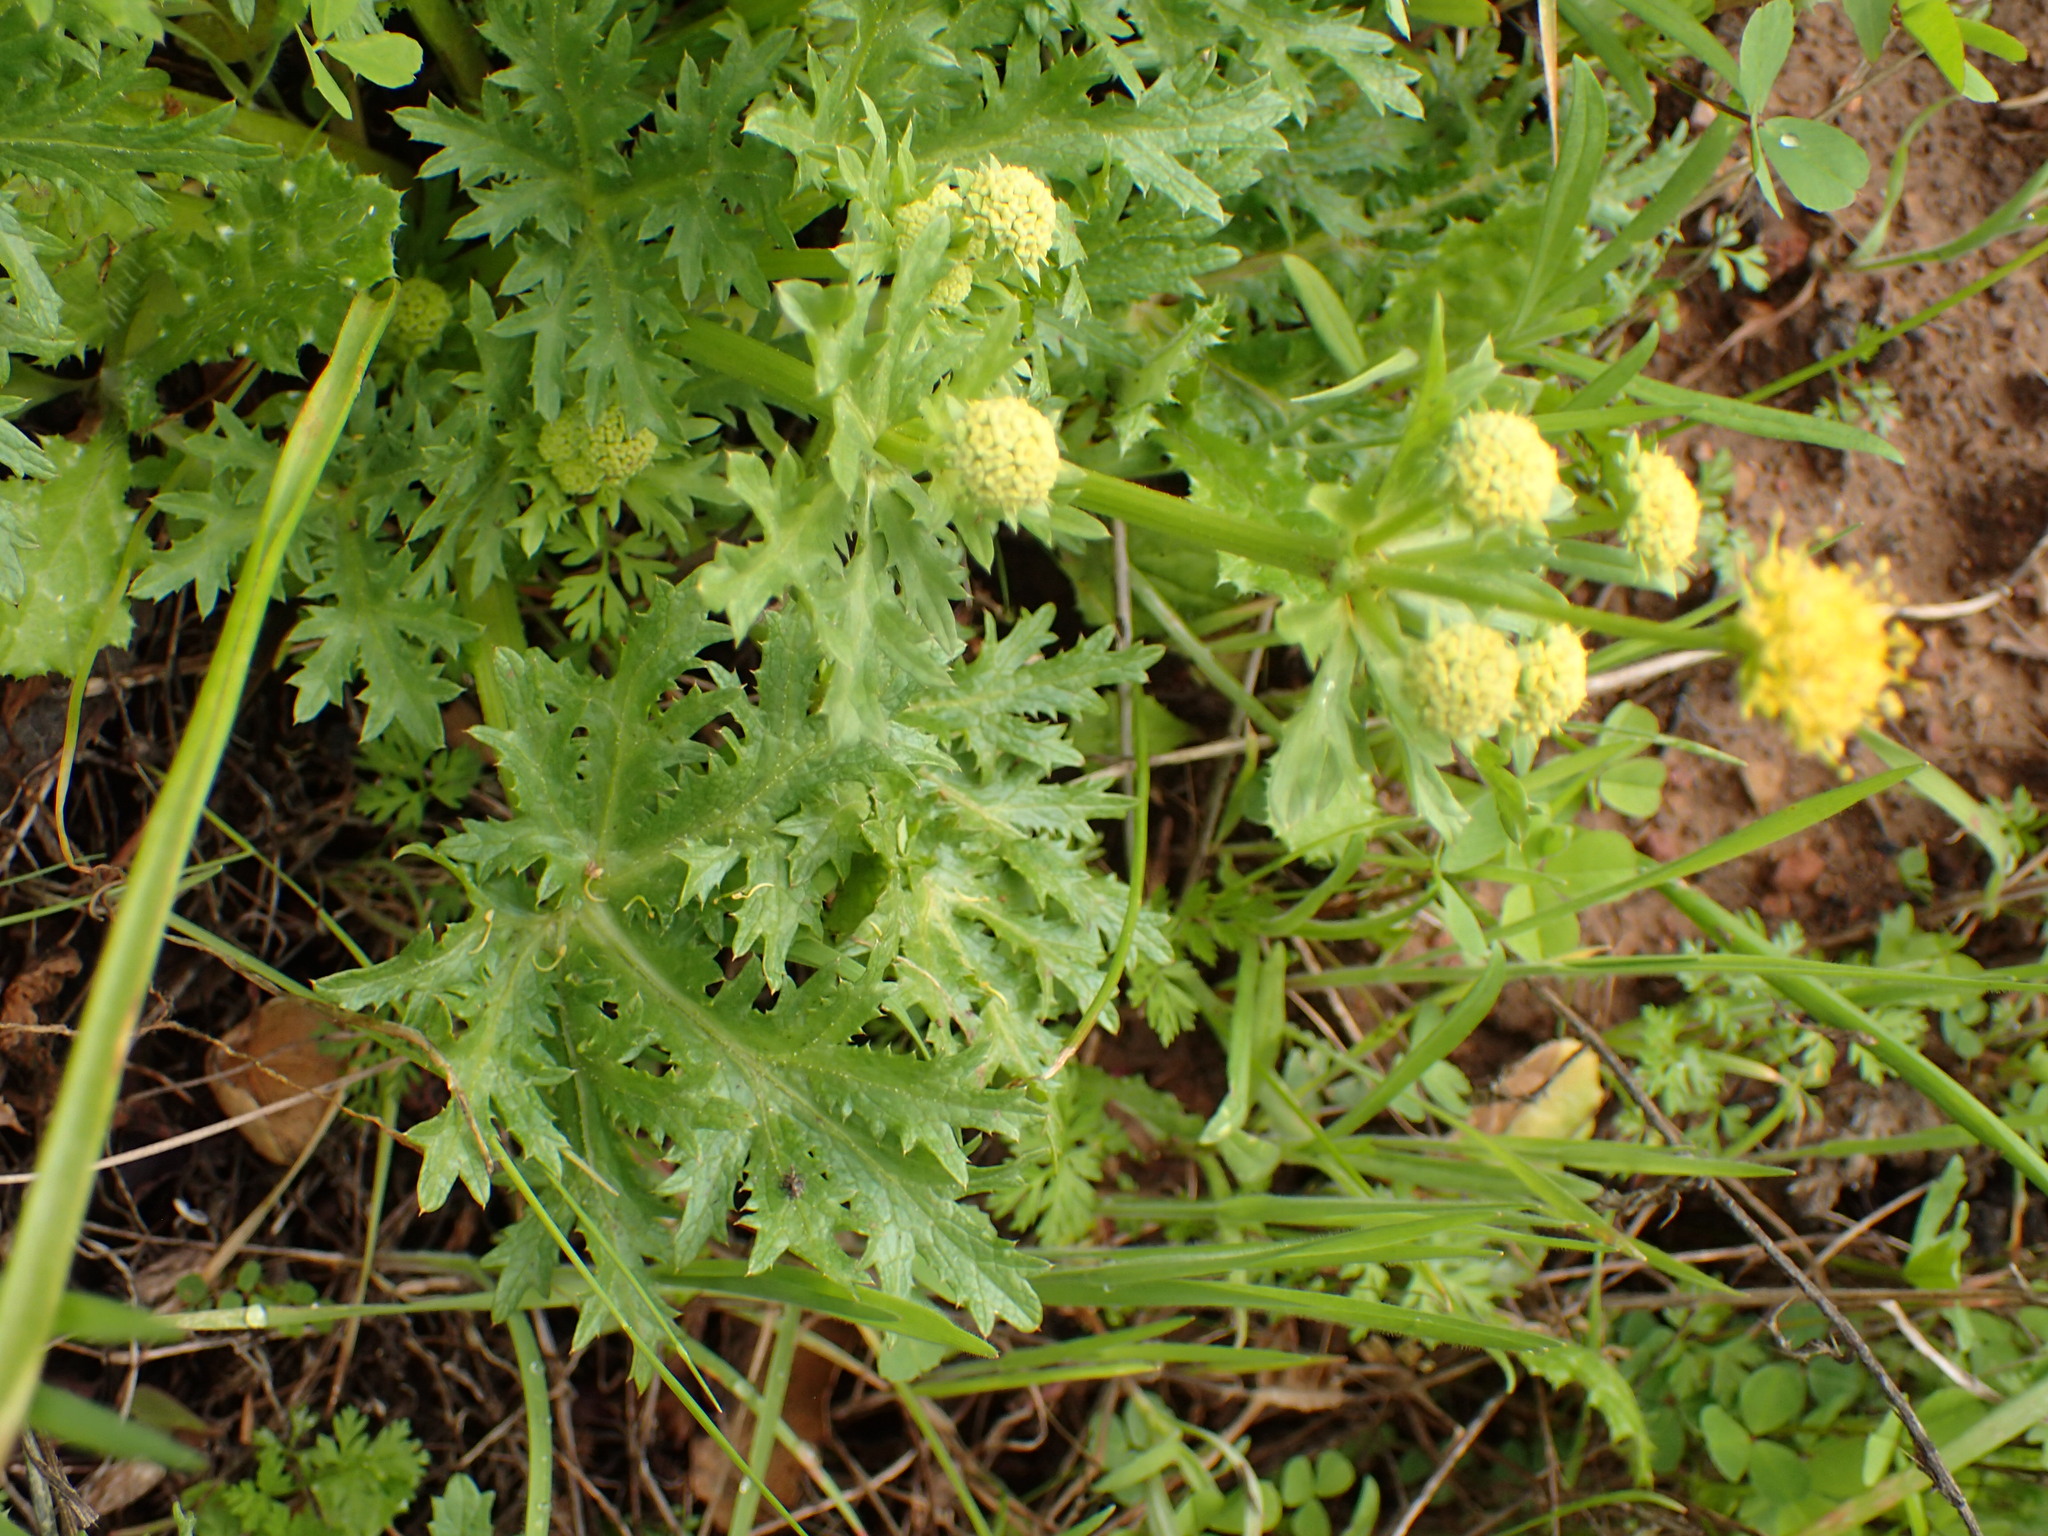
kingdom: Plantae
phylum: Tracheophyta
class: Magnoliopsida
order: Apiales
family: Apiaceae
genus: Sanicula
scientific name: Sanicula arguta
